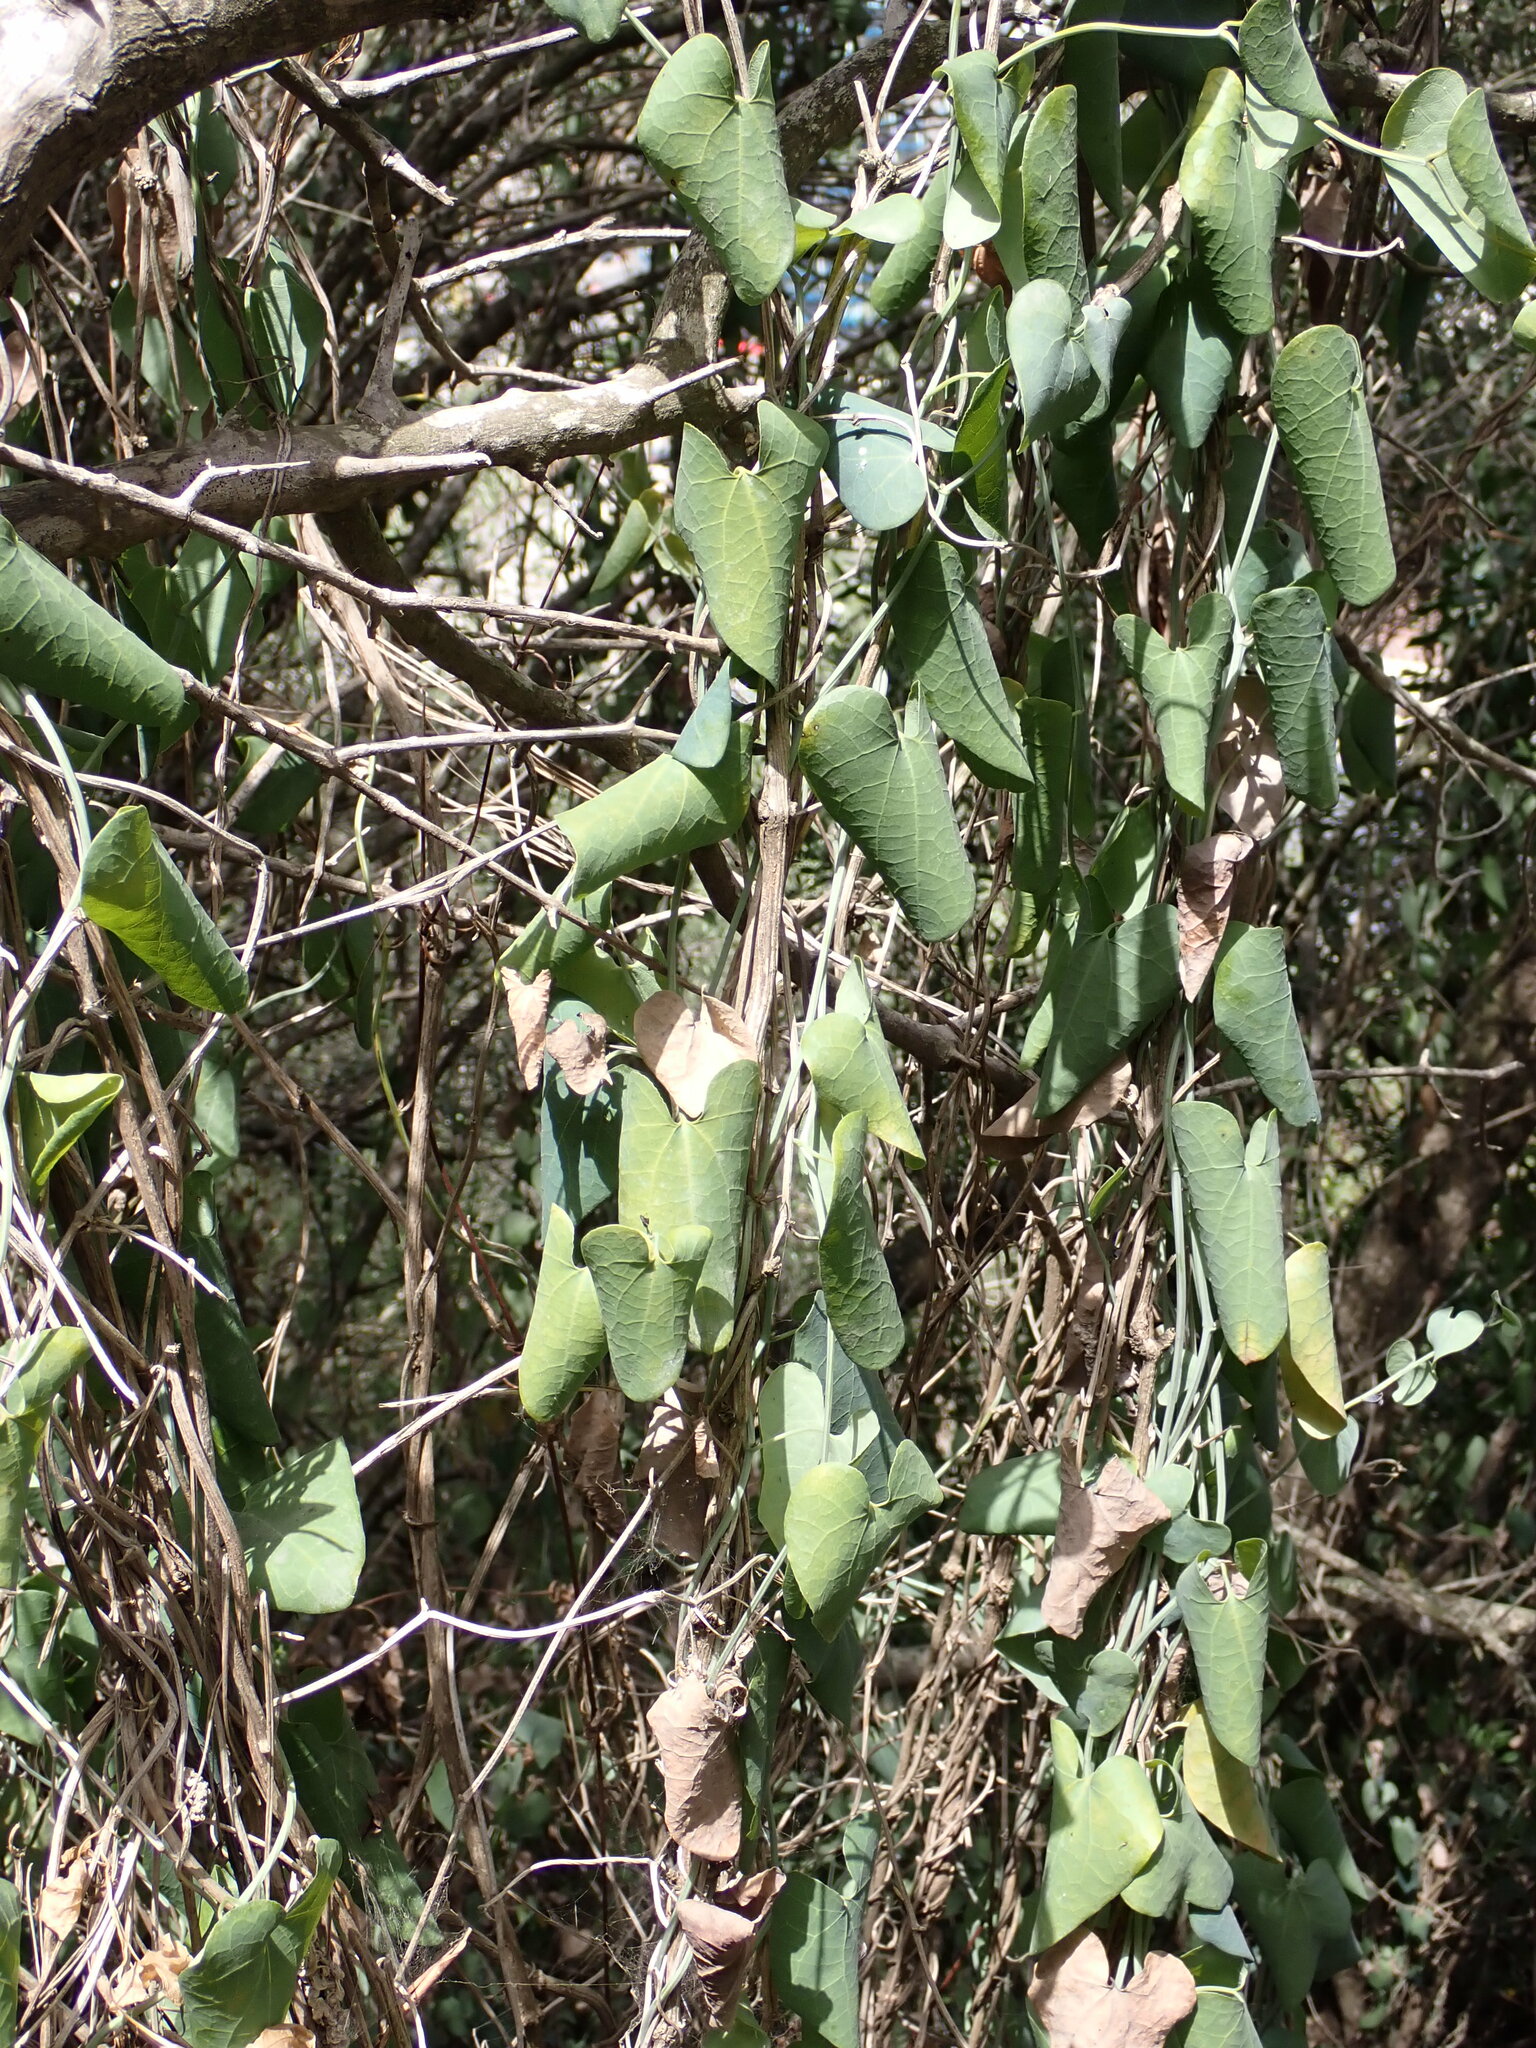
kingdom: Plantae
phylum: Tracheophyta
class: Magnoliopsida
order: Piperales
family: Aristolochiaceae
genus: Aristolochia
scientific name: Aristolochia baetica
